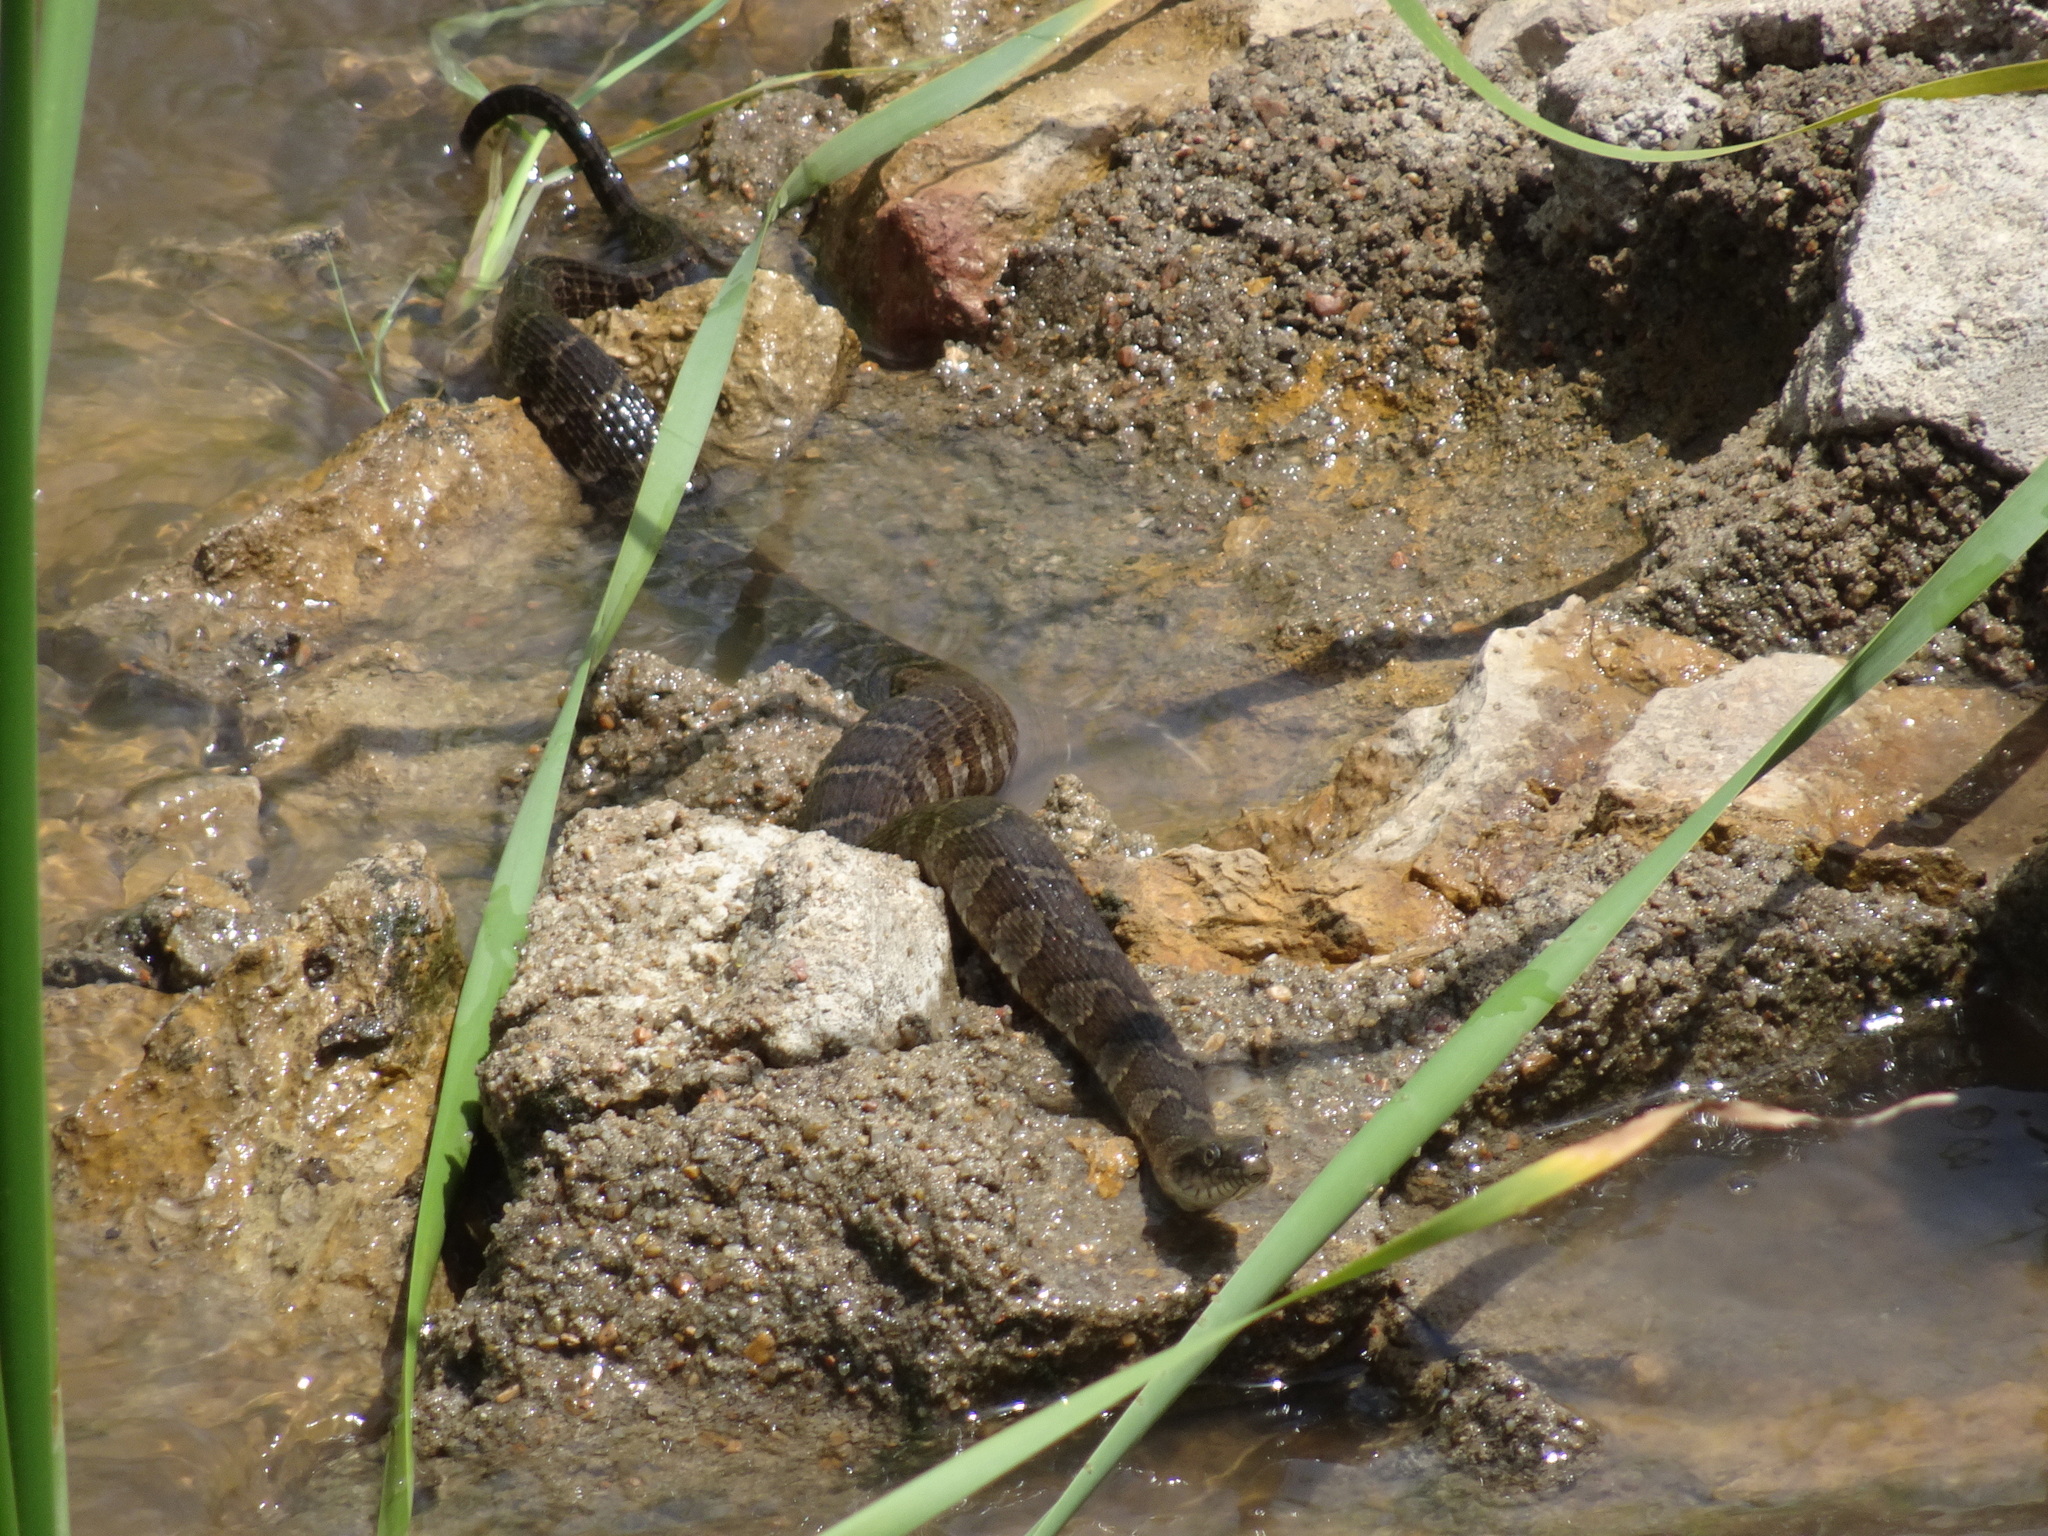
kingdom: Animalia
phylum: Chordata
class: Squamata
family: Colubridae
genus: Nerodia
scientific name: Nerodia sipedon
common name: Northern water snake
